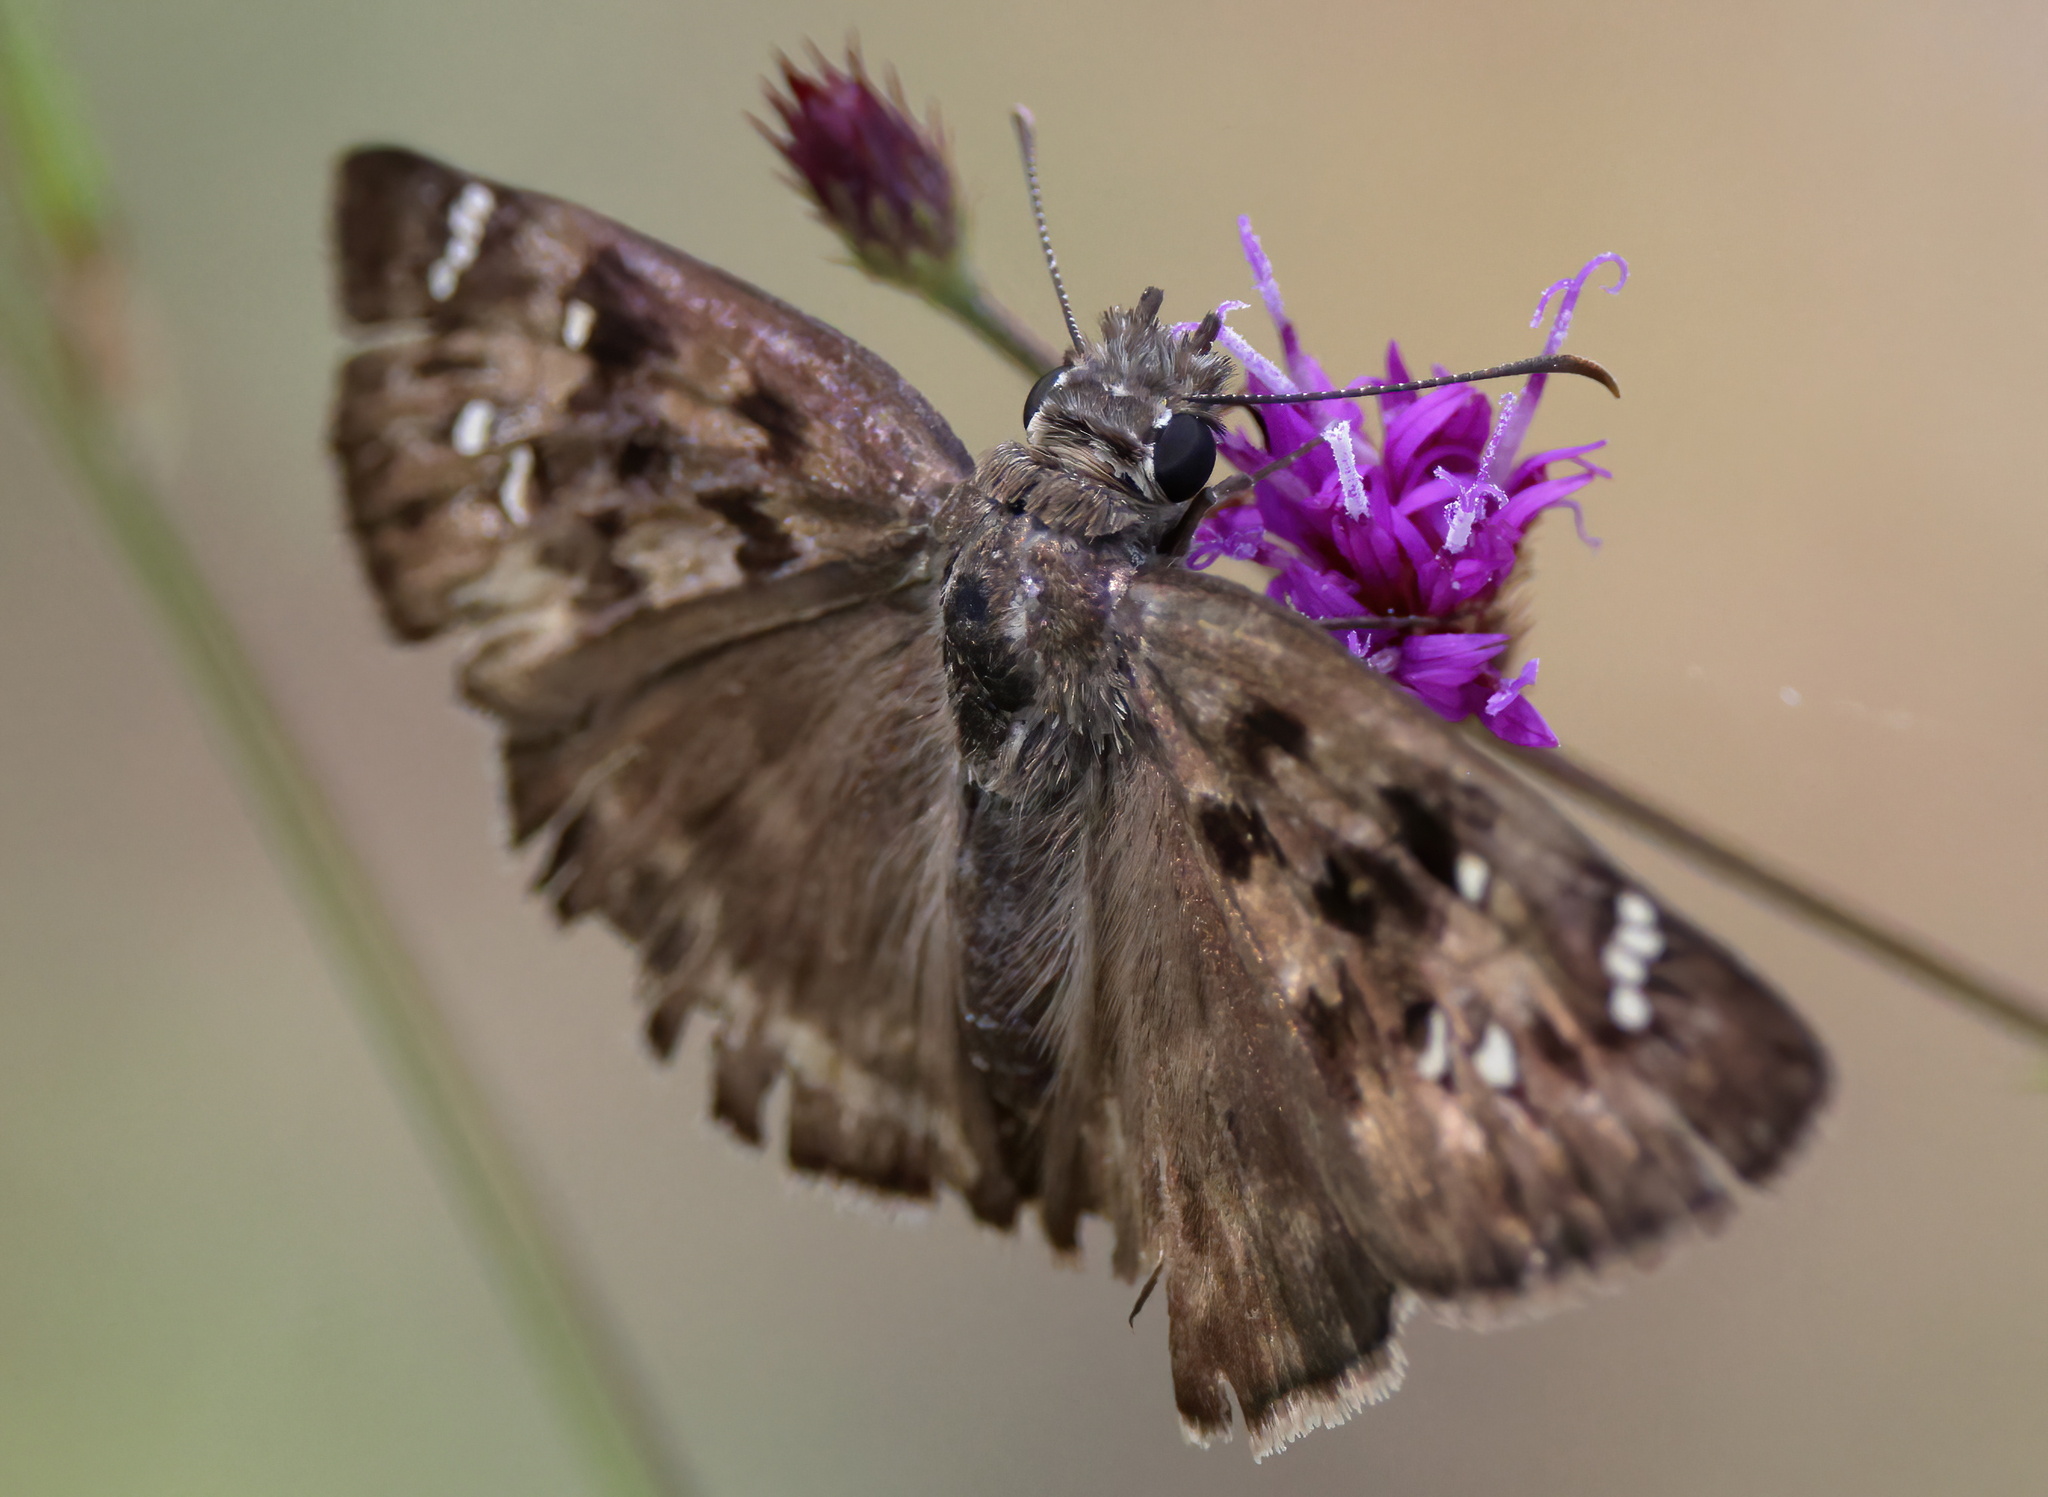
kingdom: Animalia
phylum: Arthropoda
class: Insecta
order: Lepidoptera
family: Hesperiidae
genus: Erynnis
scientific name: Erynnis horatius
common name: Horace's duskywing
